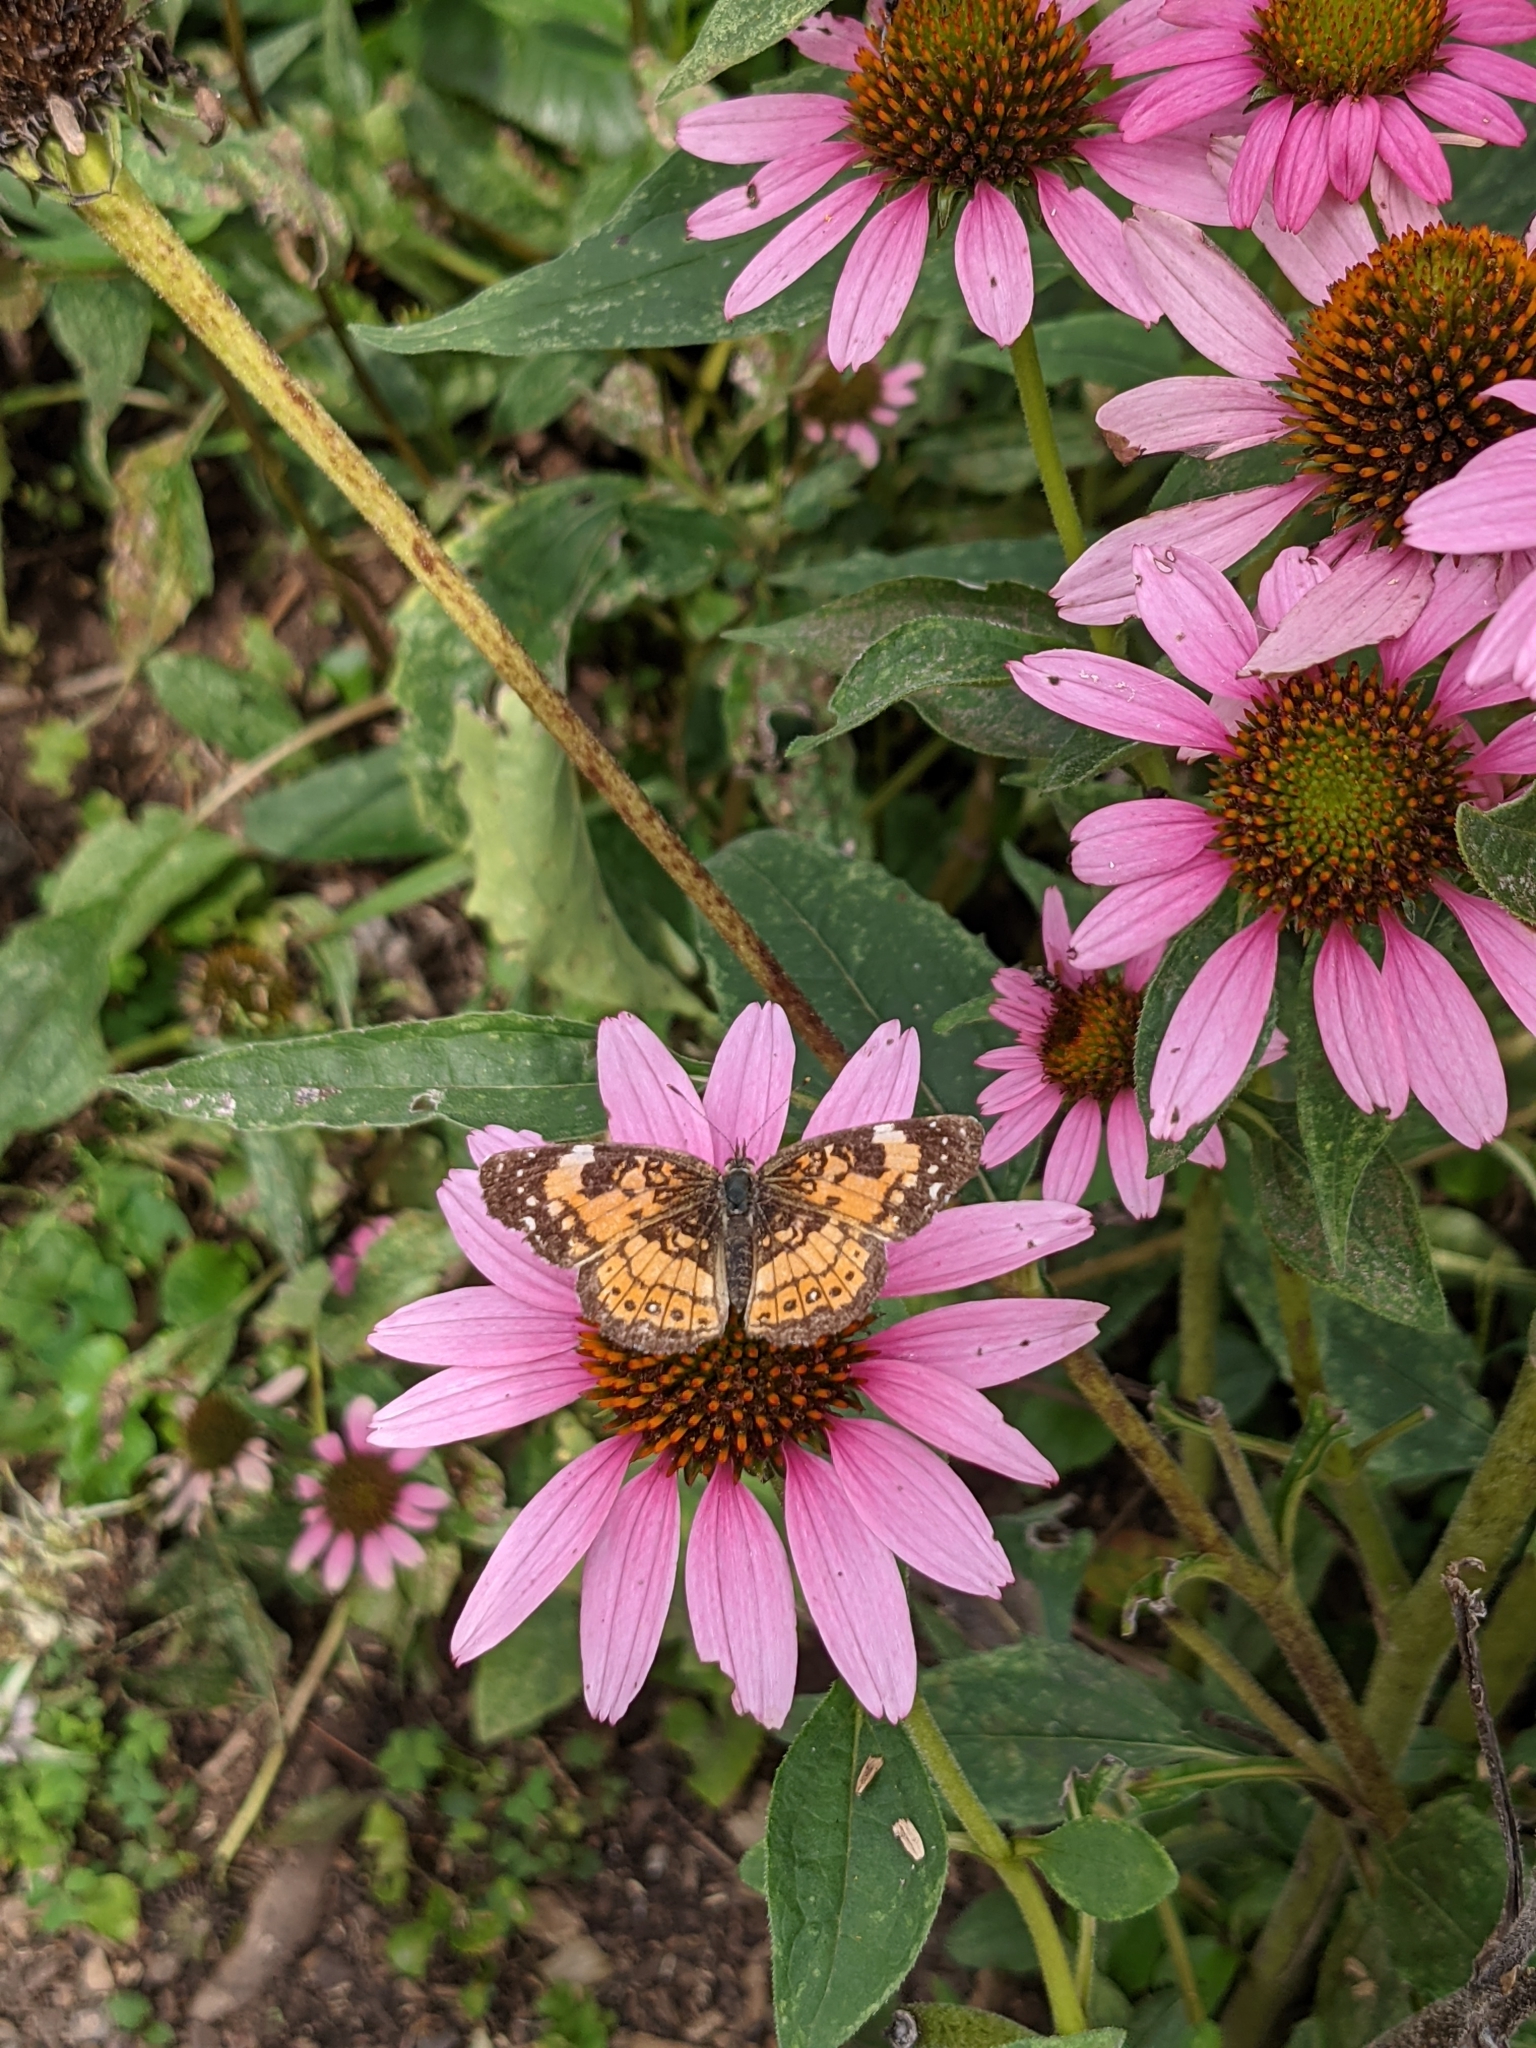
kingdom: Animalia
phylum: Arthropoda
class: Insecta
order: Lepidoptera
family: Nymphalidae
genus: Chlosyne
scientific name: Chlosyne nycteis
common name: Silvery checkerspot
